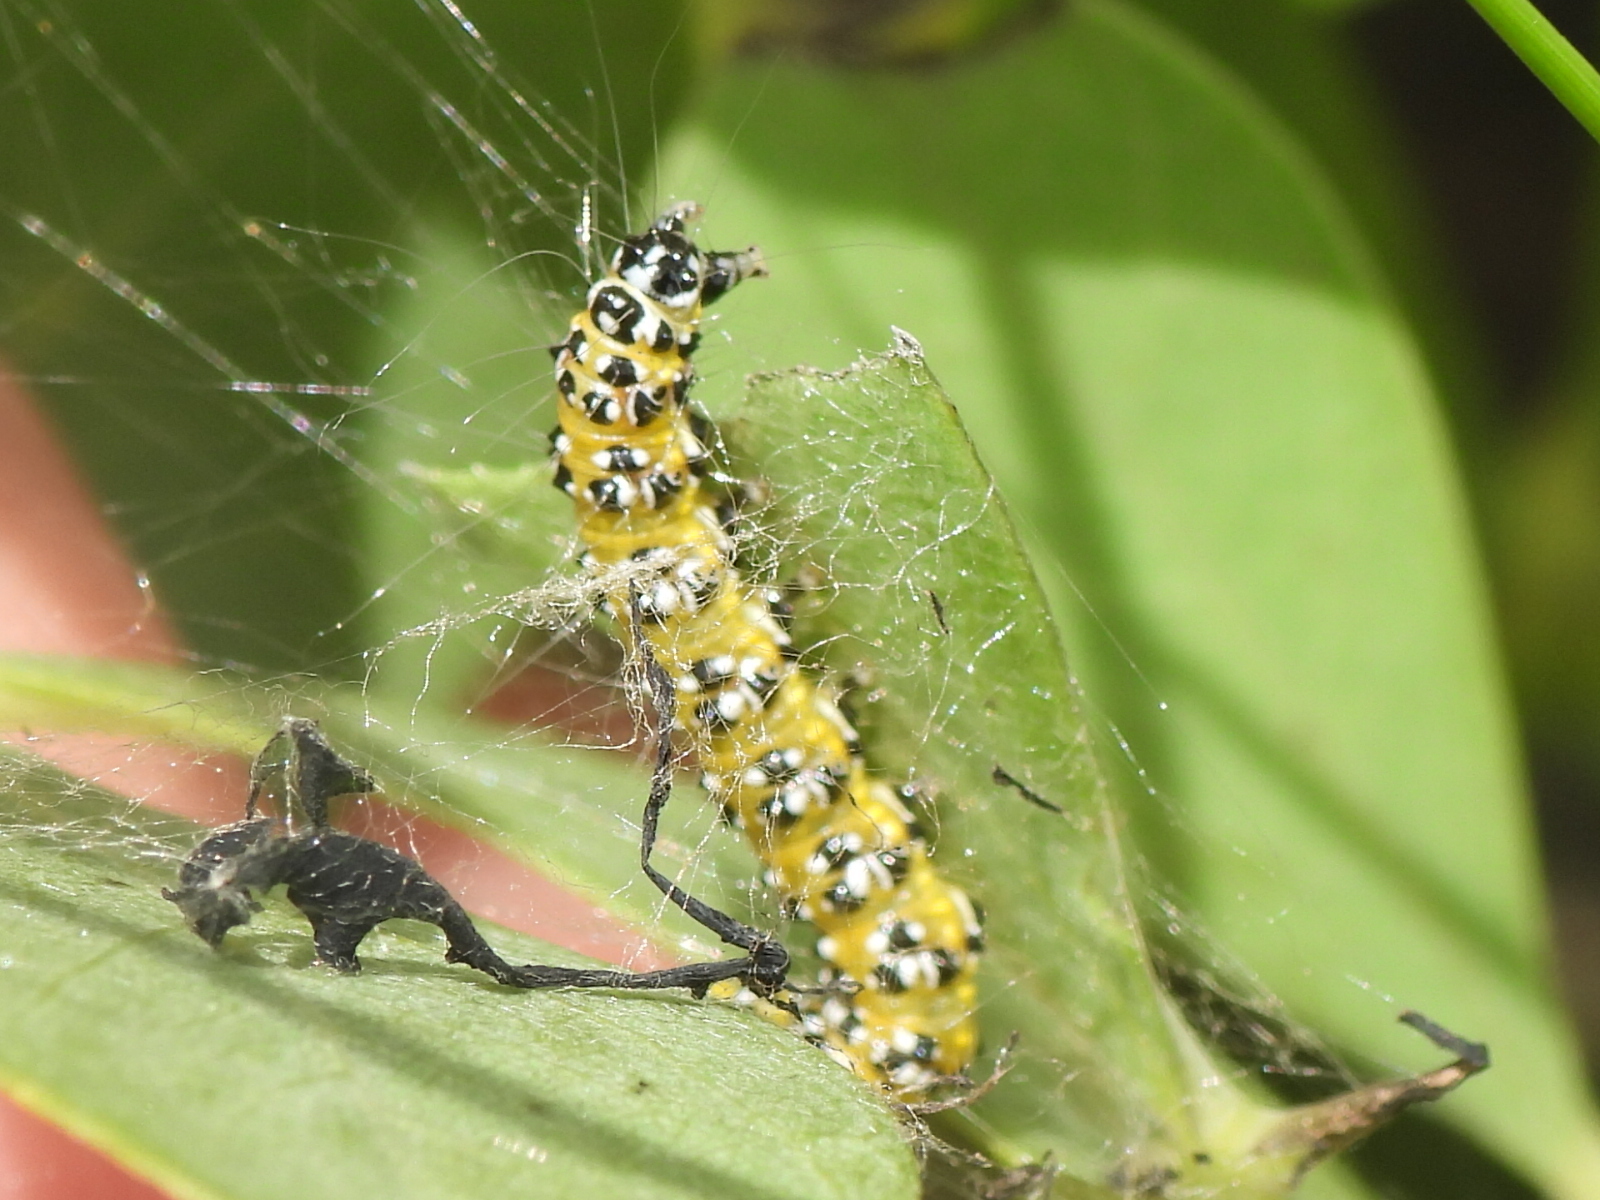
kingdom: Animalia
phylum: Arthropoda
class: Insecta
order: Lepidoptera
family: Crambidae
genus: Uresiphita
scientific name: Uresiphita reversalis
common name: Genista broom moth
